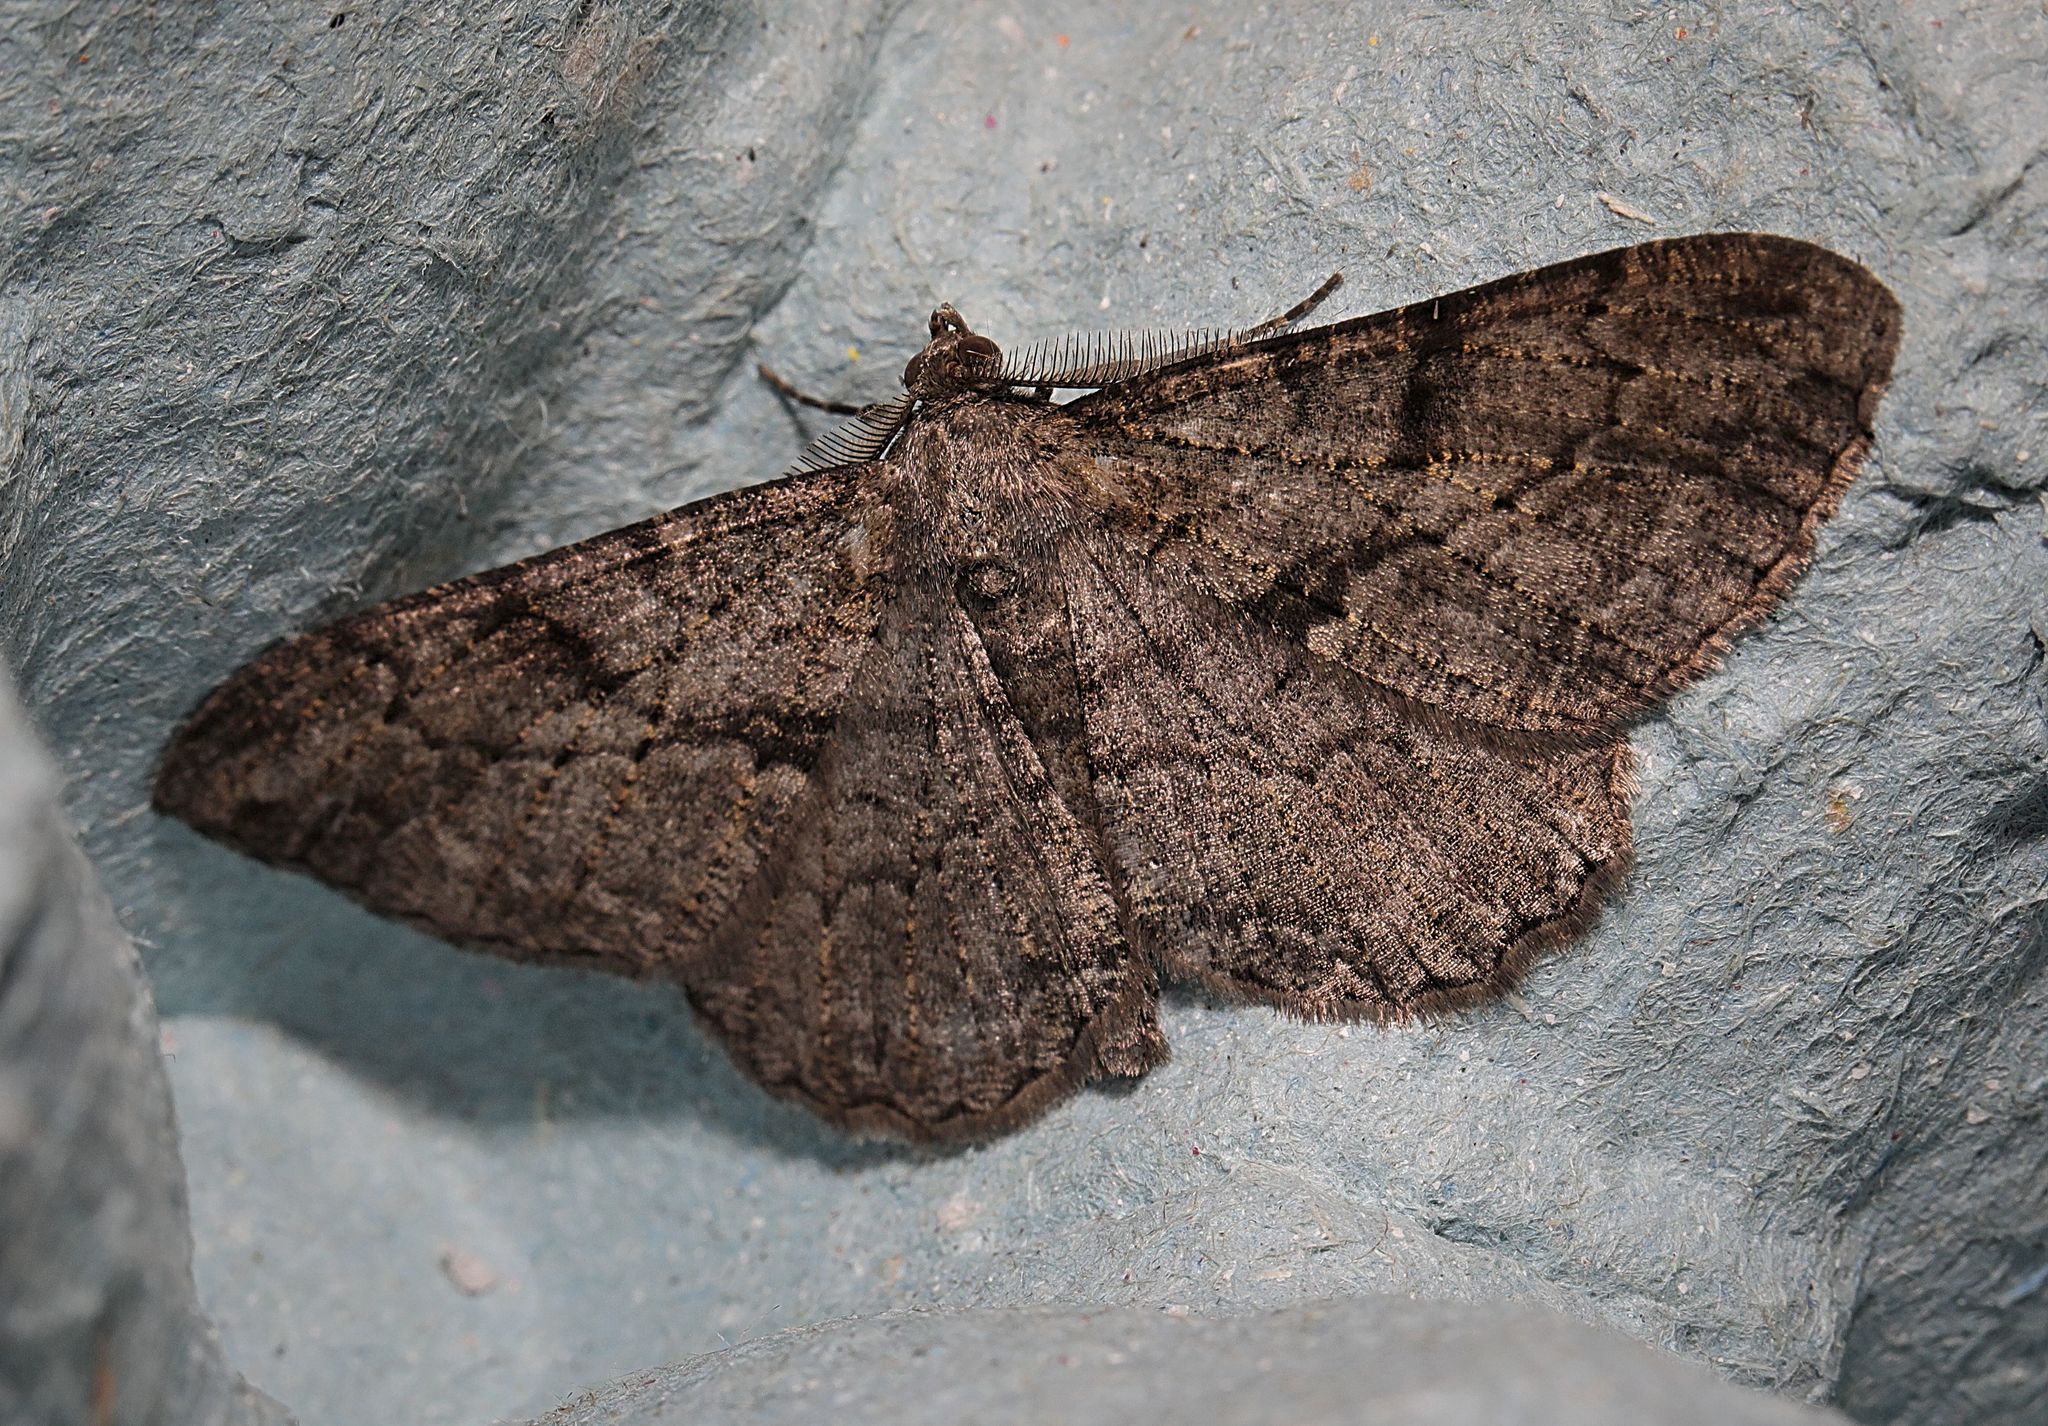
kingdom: Animalia
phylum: Arthropoda
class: Insecta
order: Lepidoptera
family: Geometridae
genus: Peribatodes
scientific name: Peribatodes rhomboidaria
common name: Willow beauty
